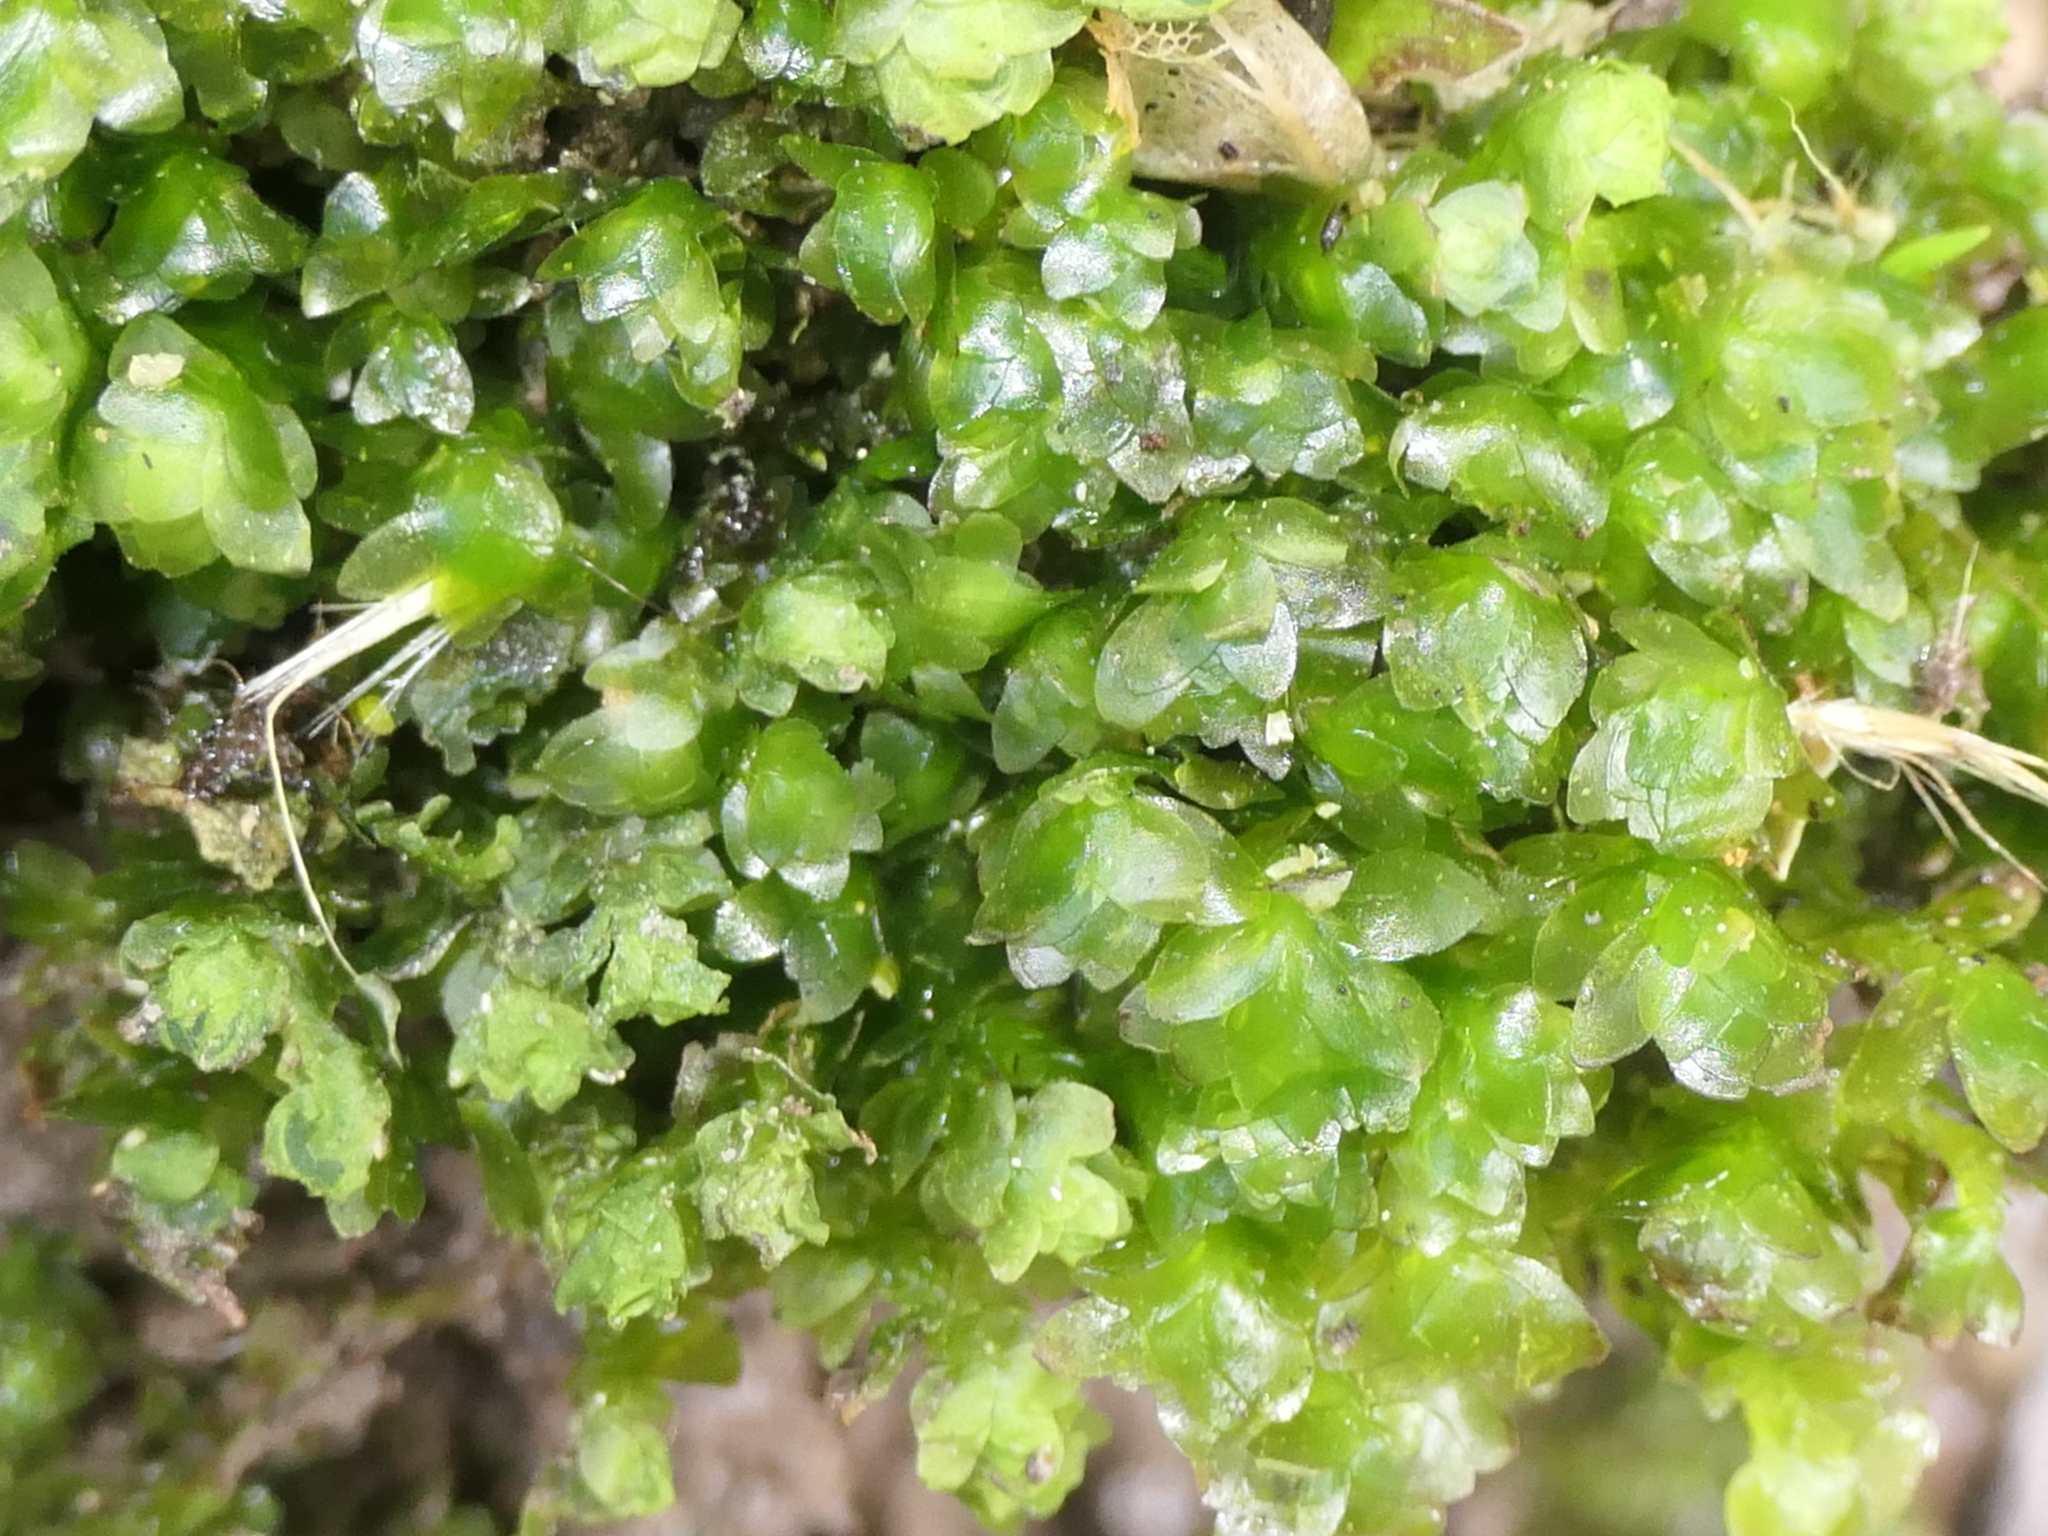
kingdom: Plantae
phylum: Bryophyta
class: Bryopsida
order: Hookeriales
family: Daltoniaceae
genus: Achrophyllum
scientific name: Achrophyllum quadrifarium
